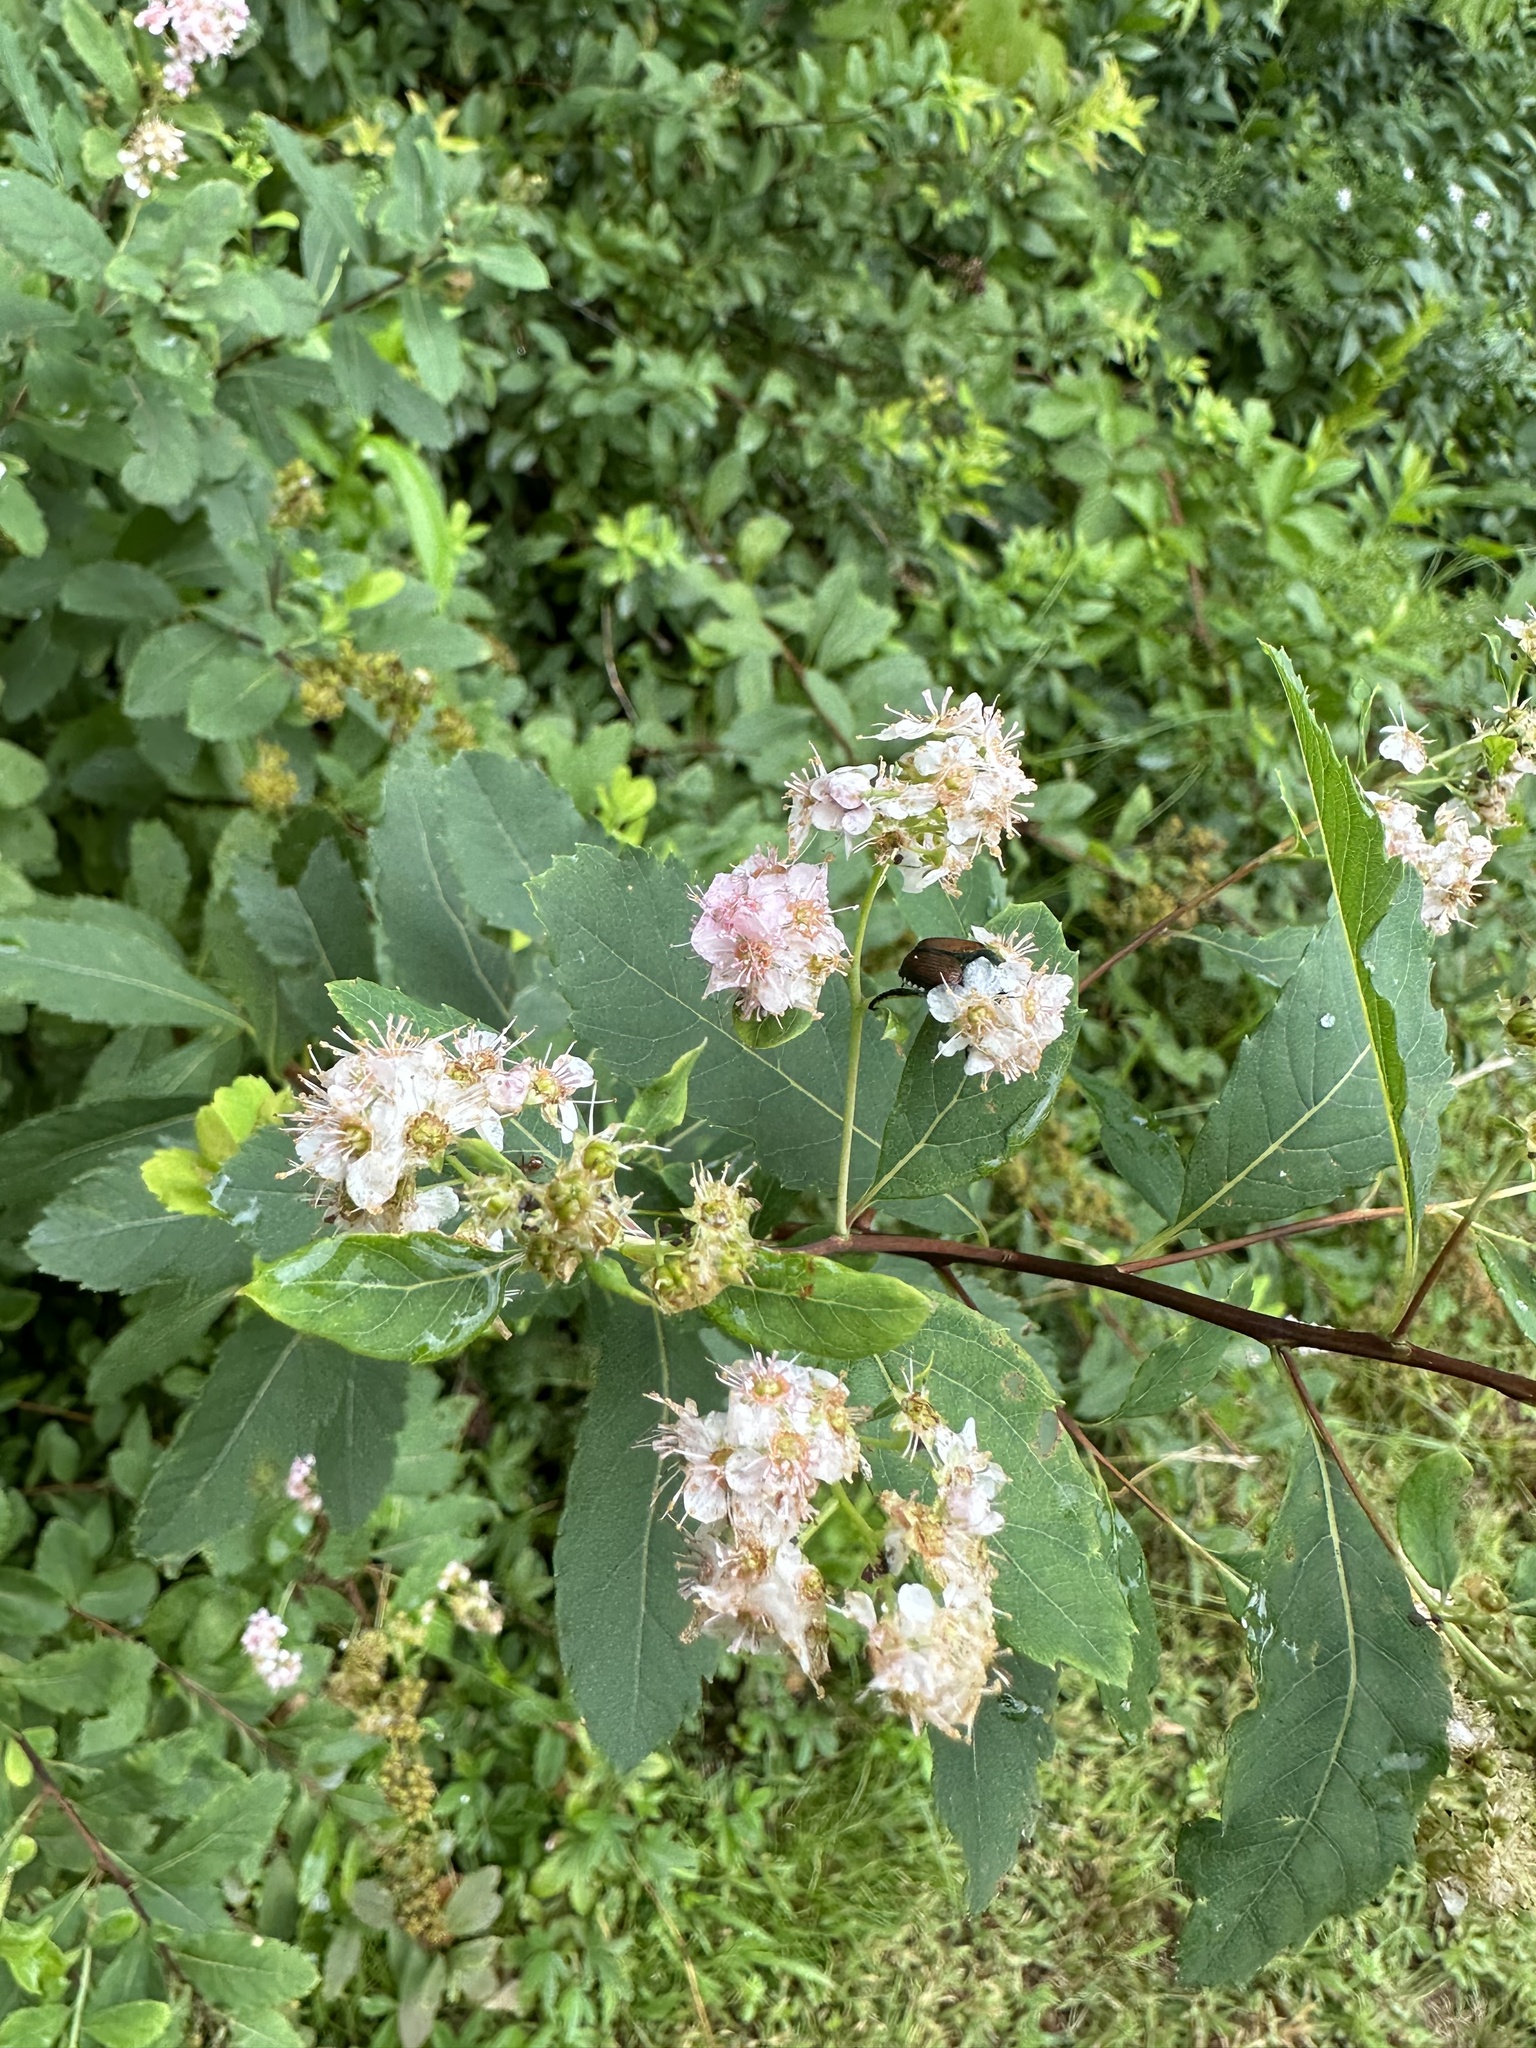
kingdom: Plantae
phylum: Tracheophyta
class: Magnoliopsida
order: Rosales
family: Rosaceae
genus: Spiraea
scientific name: Spiraea alba
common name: Pale bridewort
